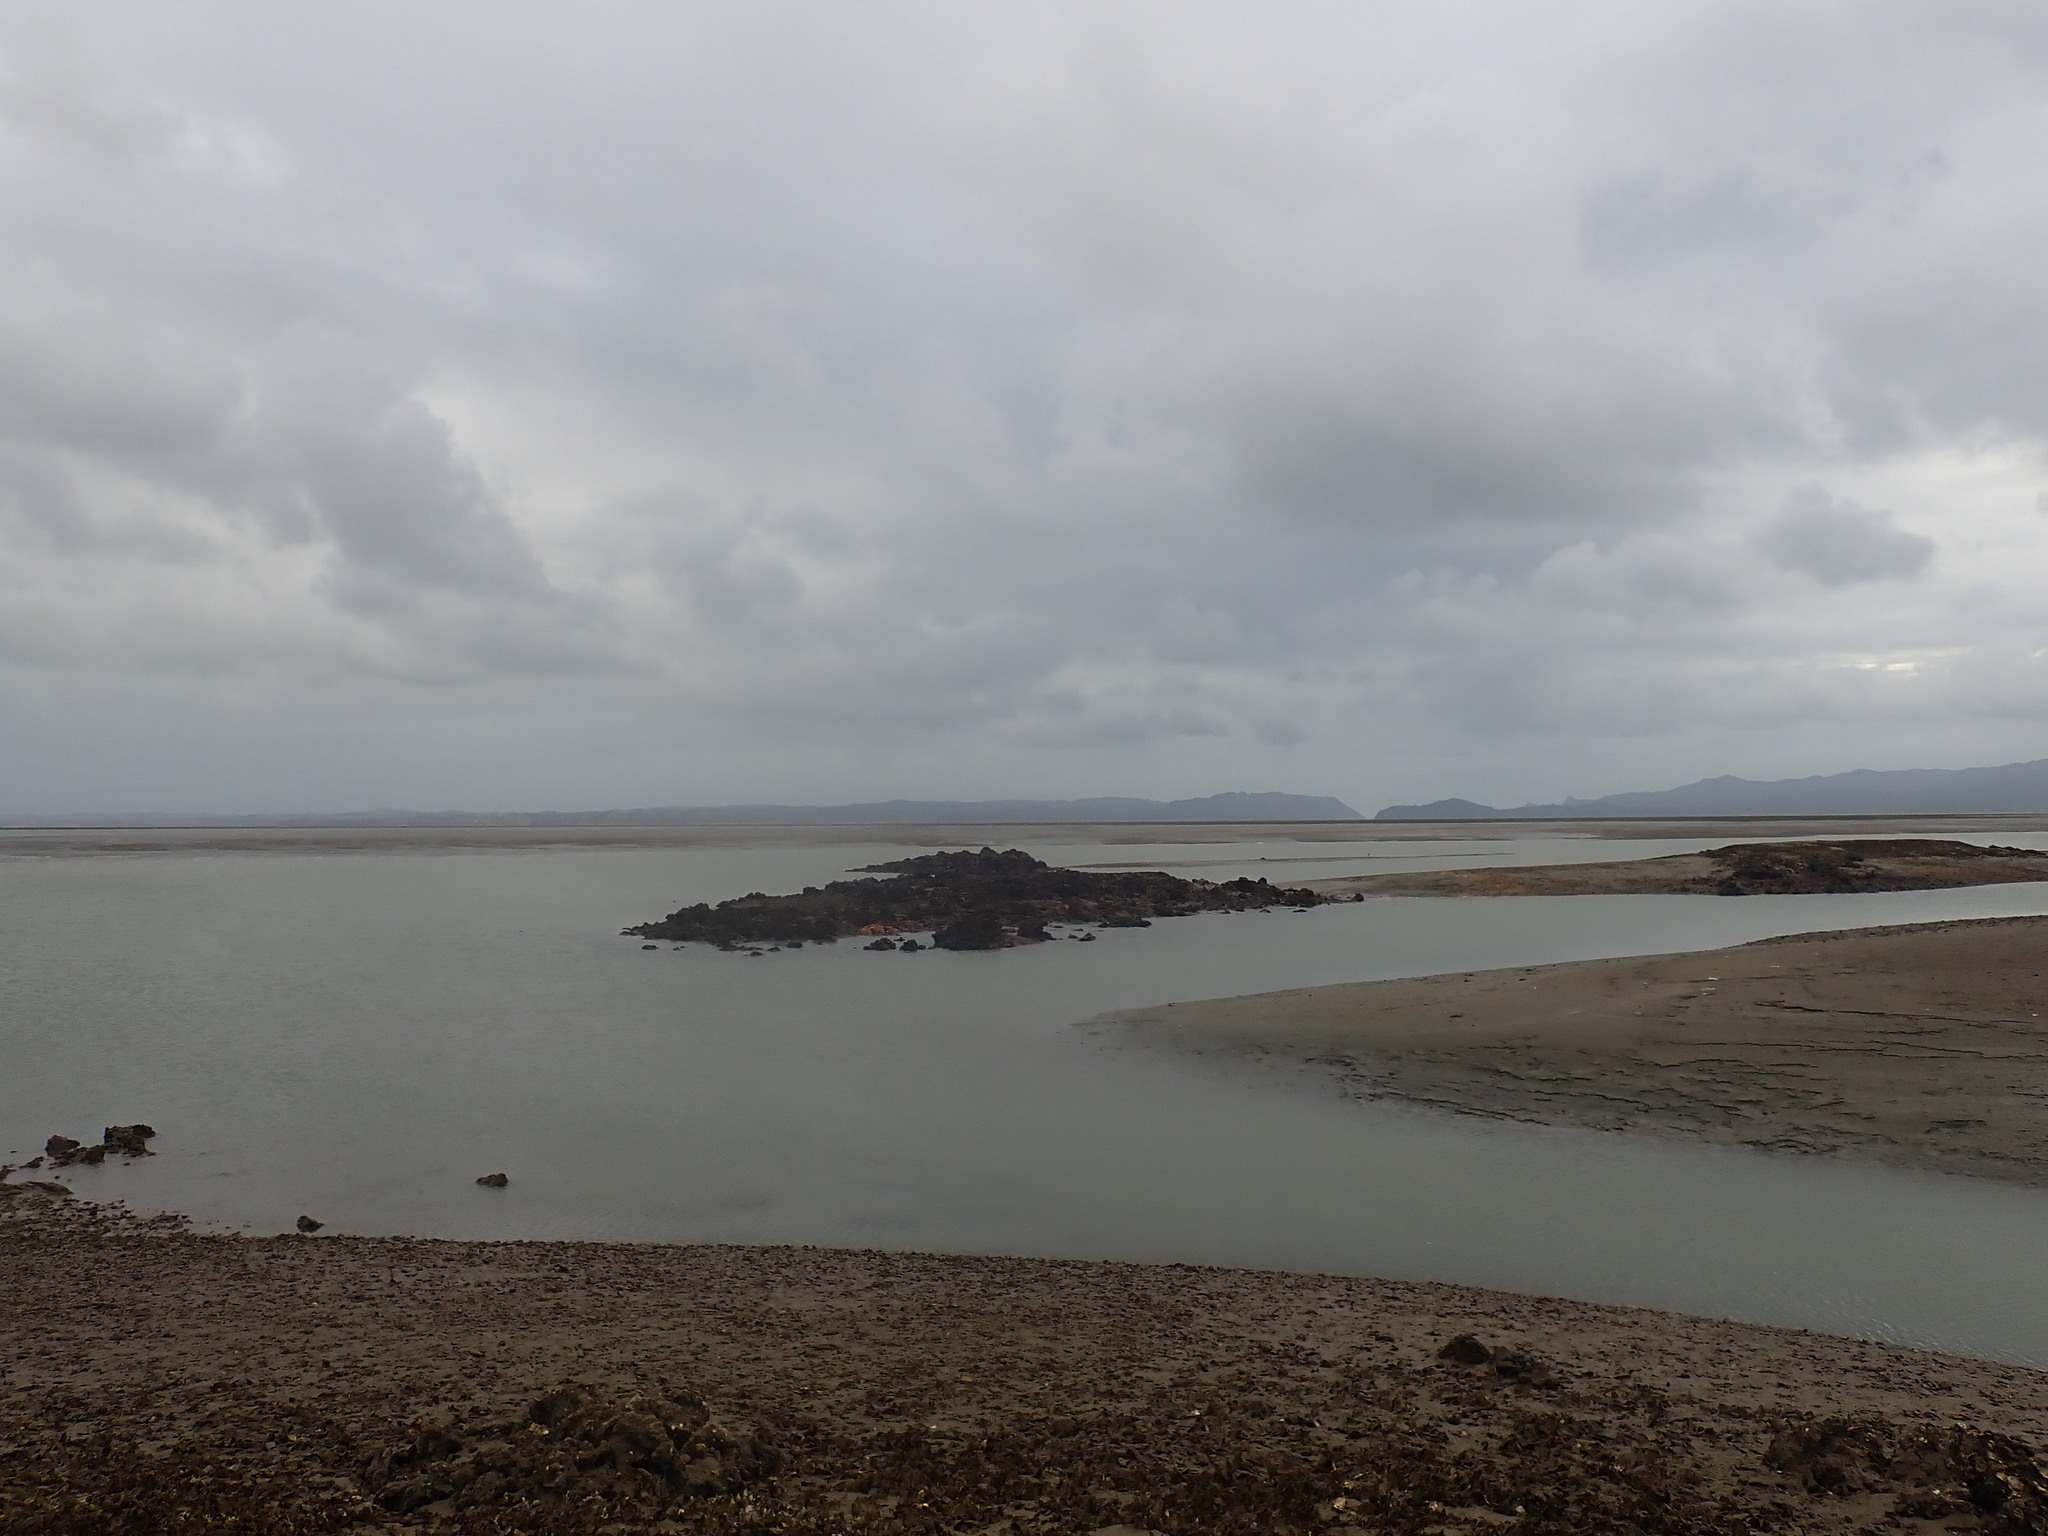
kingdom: Animalia
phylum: Mollusca
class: Bivalvia
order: Ostreida
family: Ostreidae
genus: Magallana
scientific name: Magallana gigas
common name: Pacific oyster
